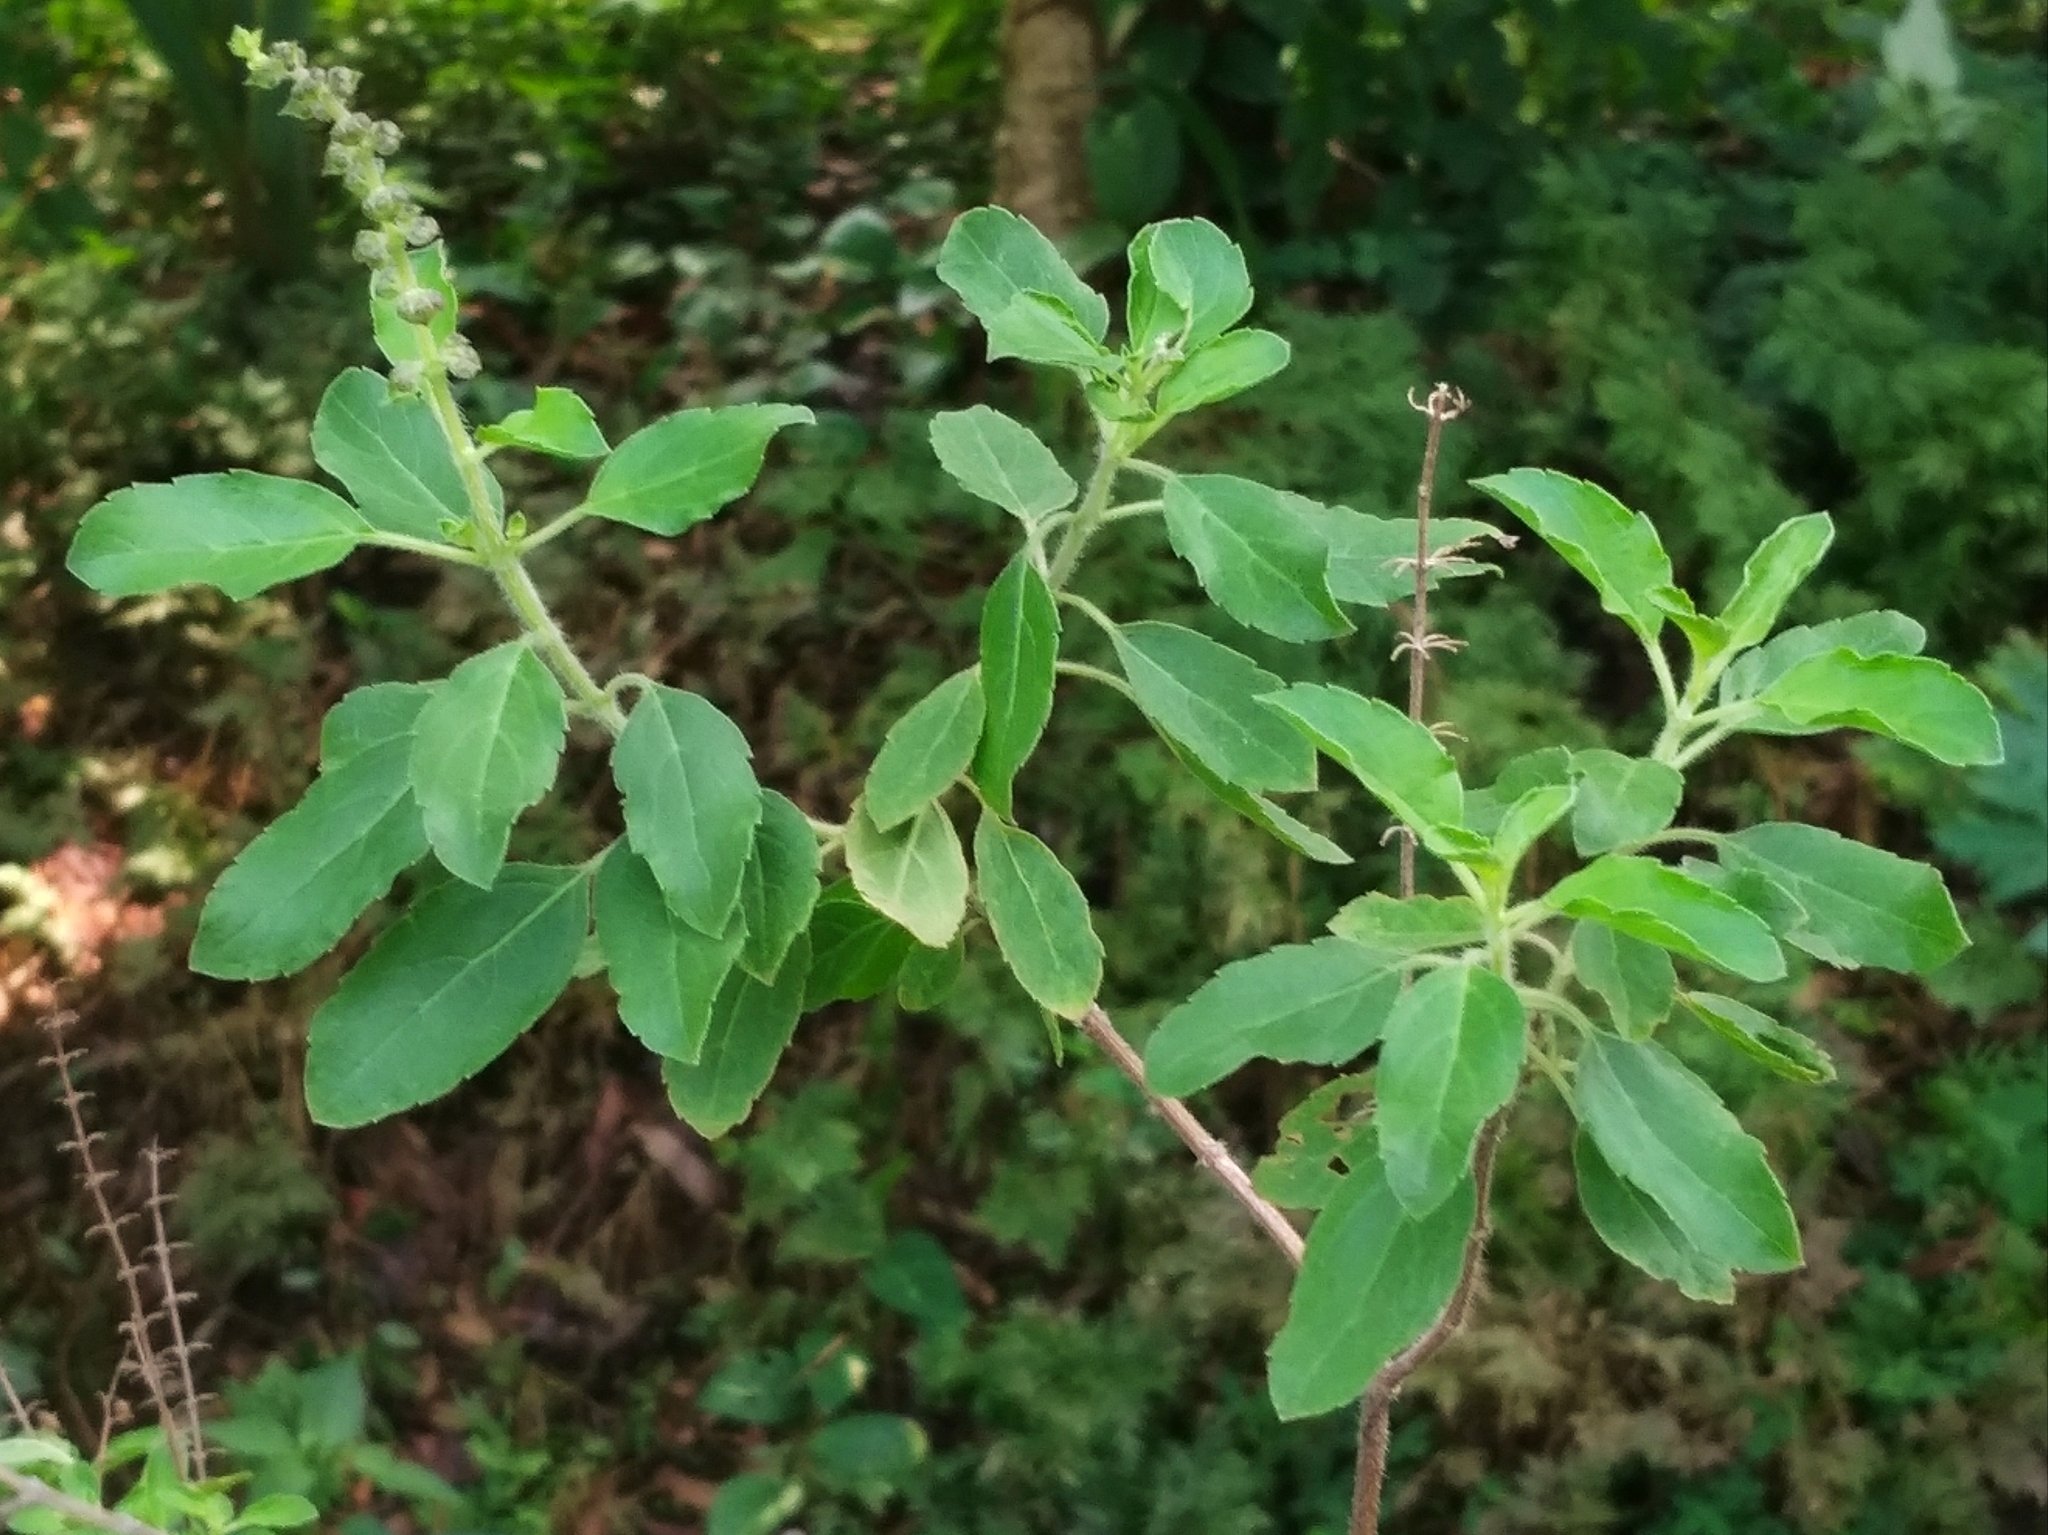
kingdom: Plantae
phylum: Tracheophyta
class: Magnoliopsida
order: Lamiales
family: Lamiaceae
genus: Ocimum
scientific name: Ocimum tenuiflorum
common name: Sacred basil
